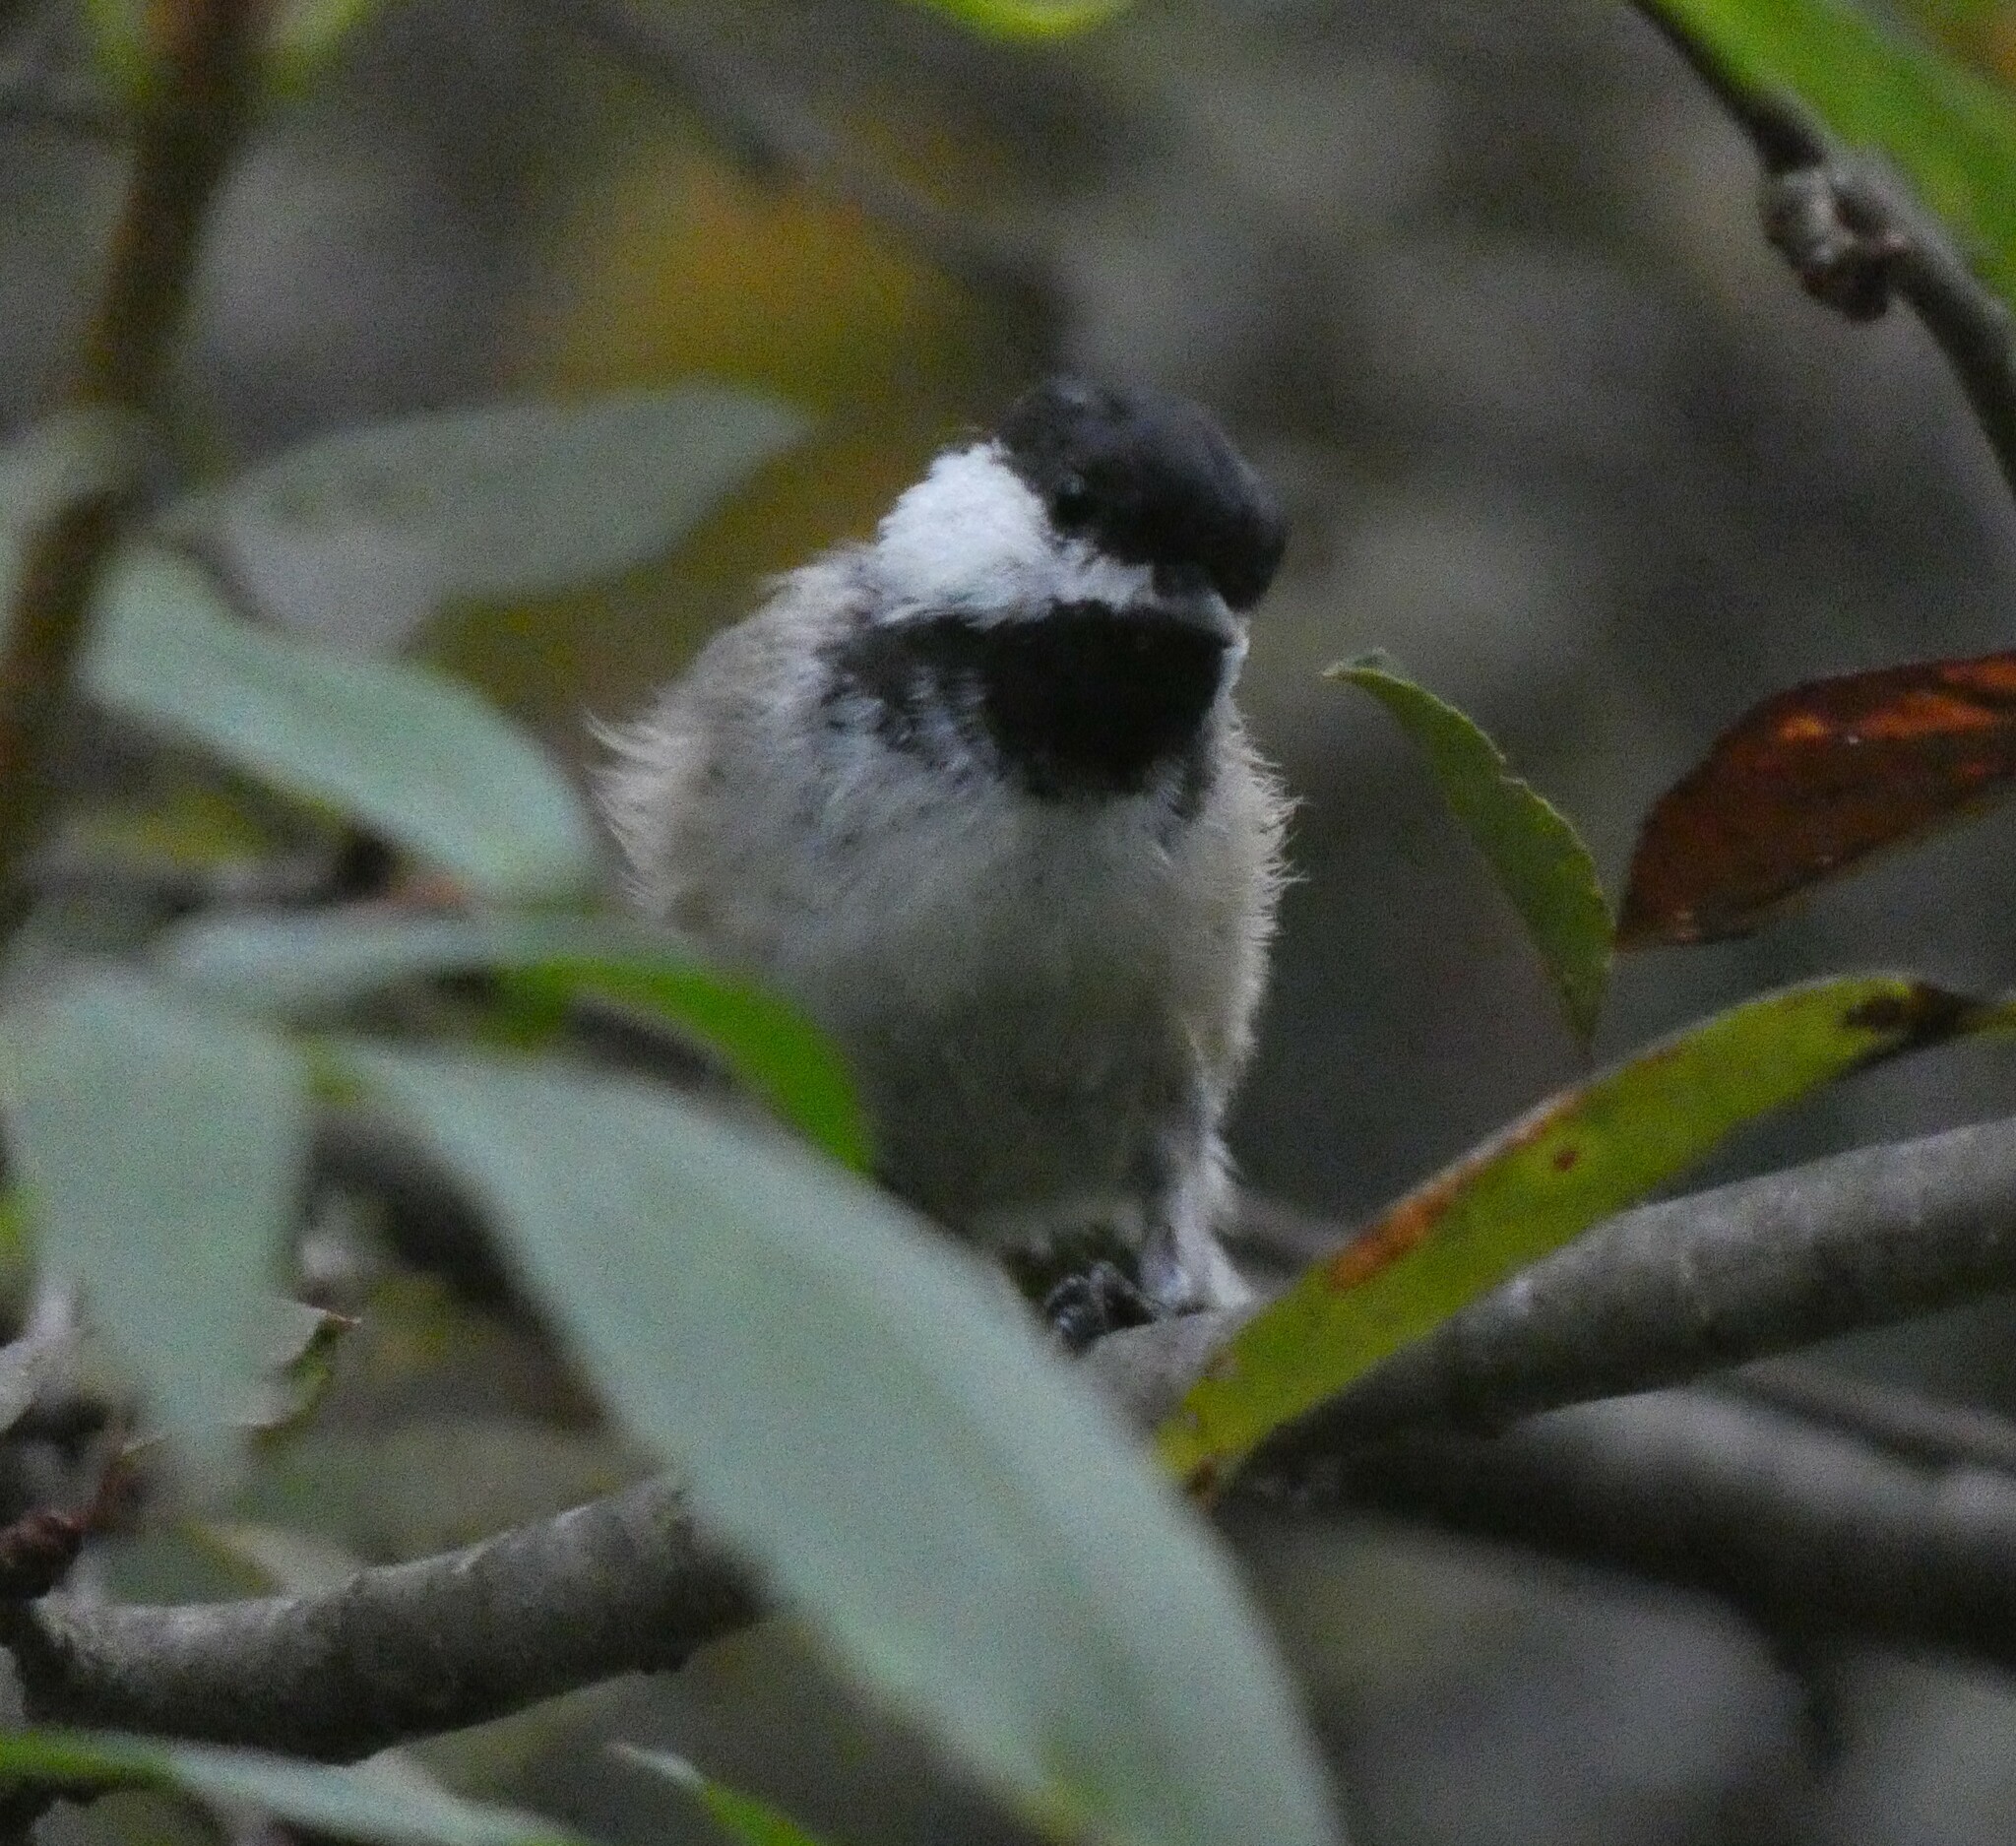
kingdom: Animalia
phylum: Chordata
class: Aves
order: Passeriformes
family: Paridae
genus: Poecile
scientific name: Poecile atricapillus
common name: Black-capped chickadee
